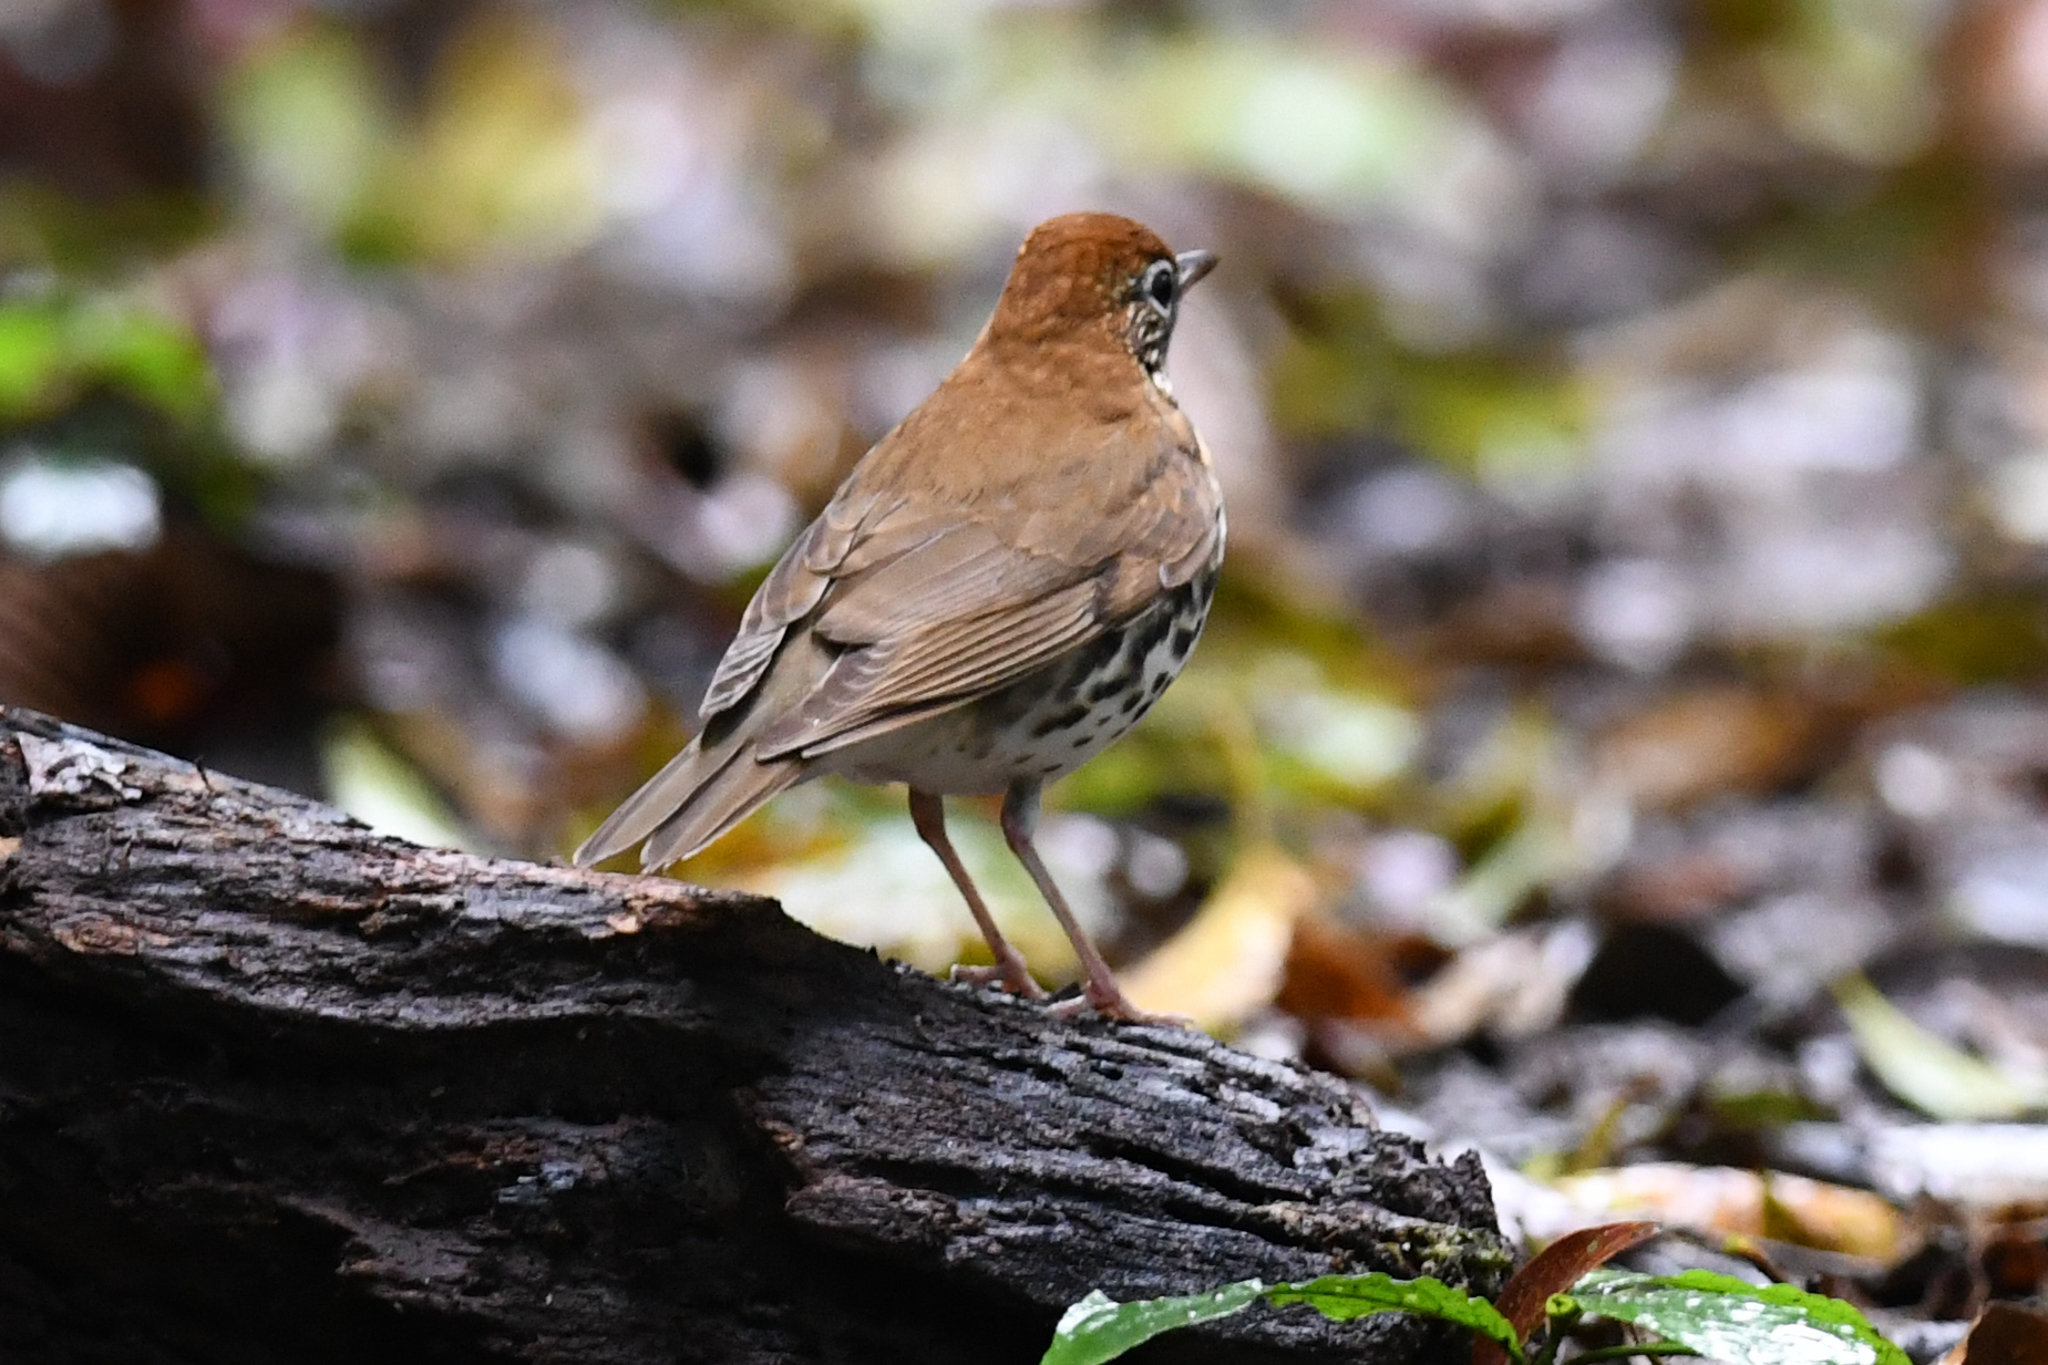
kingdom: Animalia
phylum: Chordata
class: Aves
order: Passeriformes
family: Turdidae
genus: Hylocichla
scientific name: Hylocichla mustelina
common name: Wood thrush
